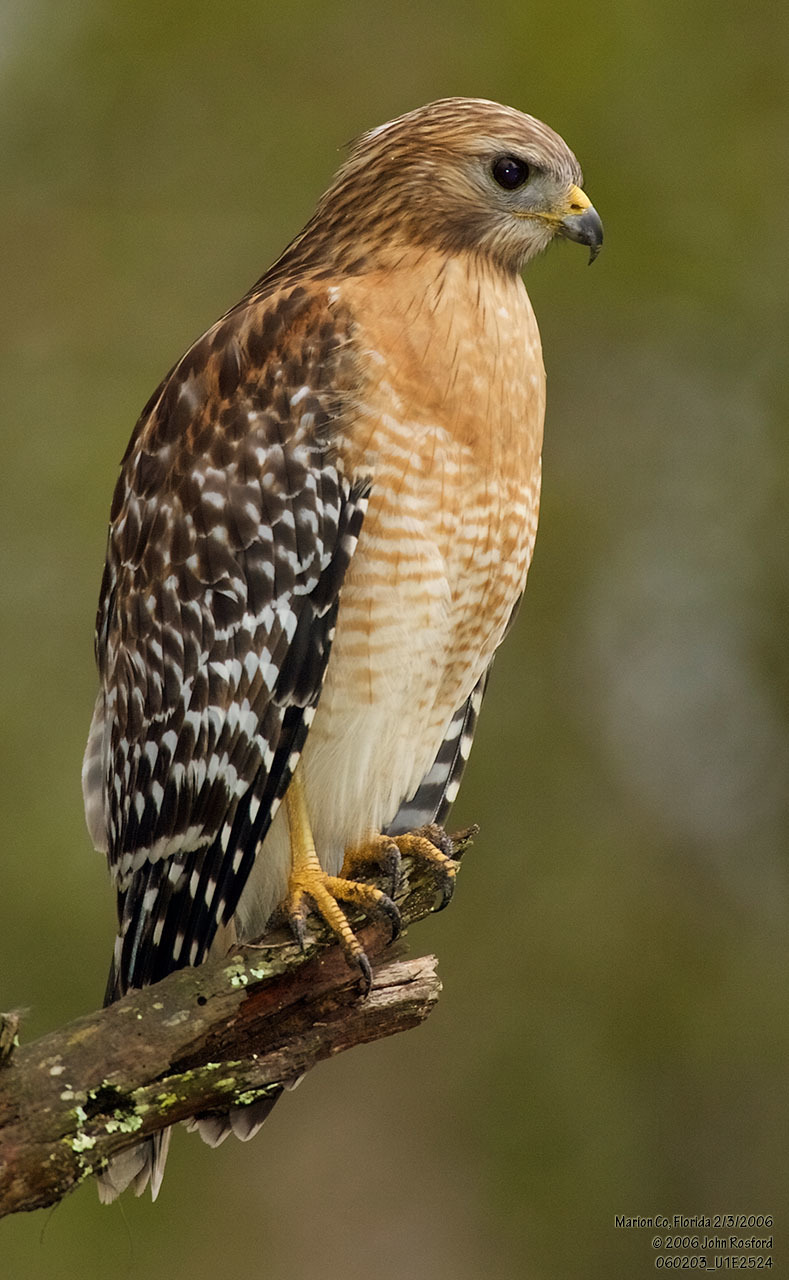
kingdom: Animalia
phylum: Chordata
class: Aves
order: Accipitriformes
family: Accipitridae
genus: Buteo
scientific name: Buteo lineatus
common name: Red-shouldered hawk
